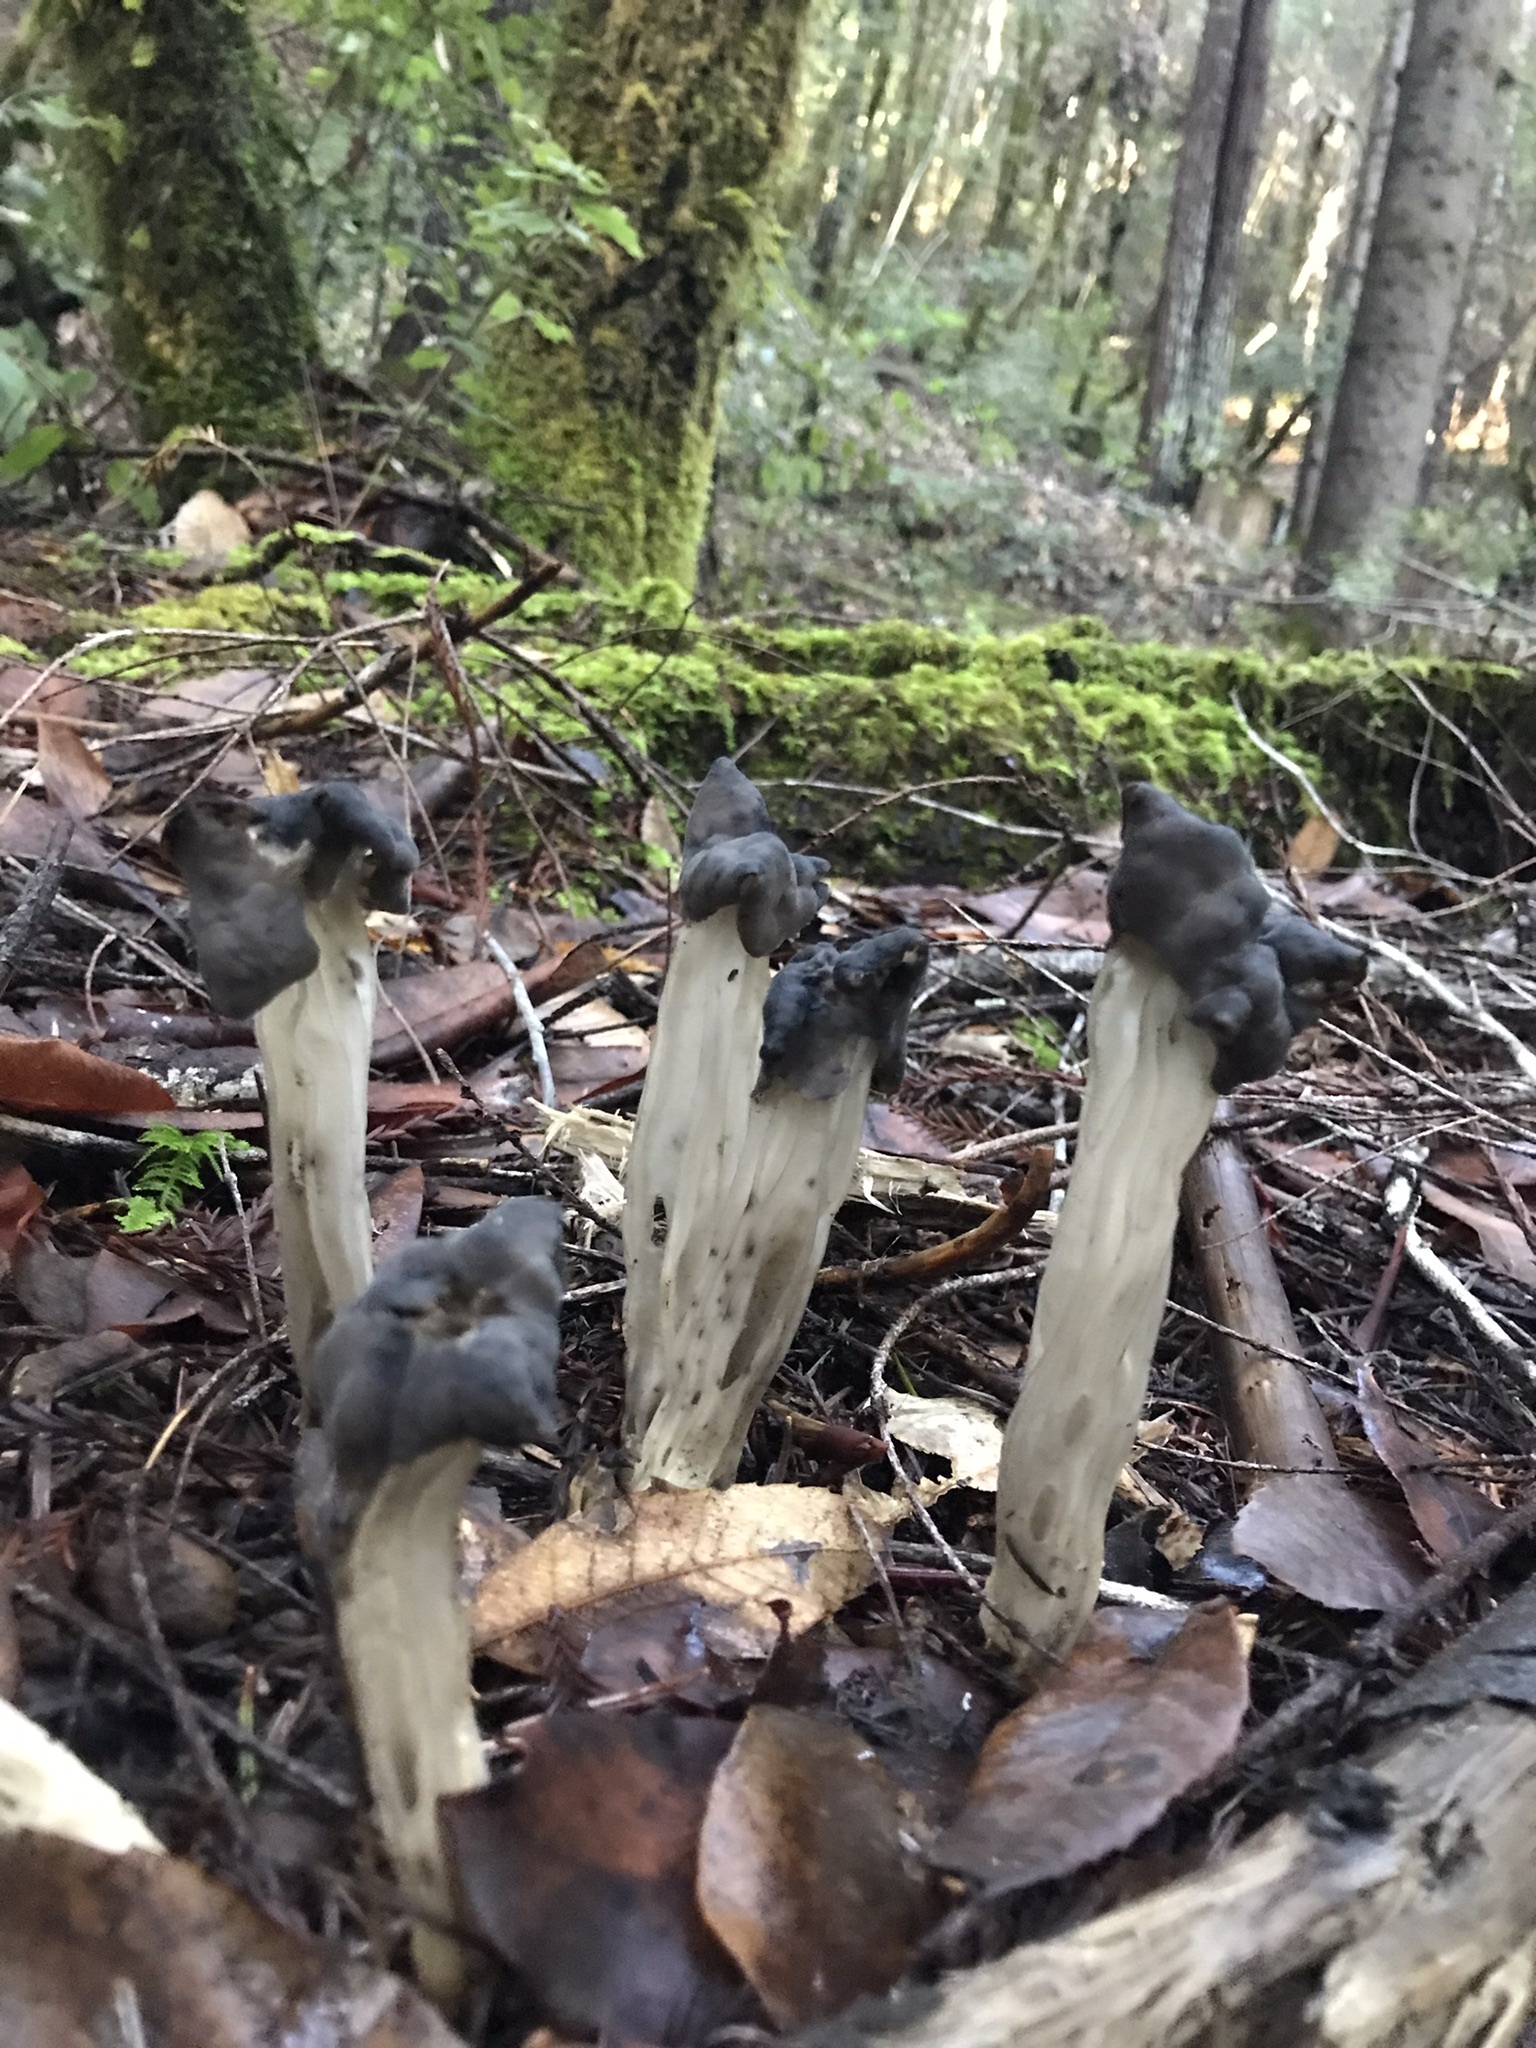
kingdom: Fungi
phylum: Ascomycota
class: Pezizomycetes
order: Pezizales
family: Helvellaceae
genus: Helvella
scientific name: Helvella dryophila
